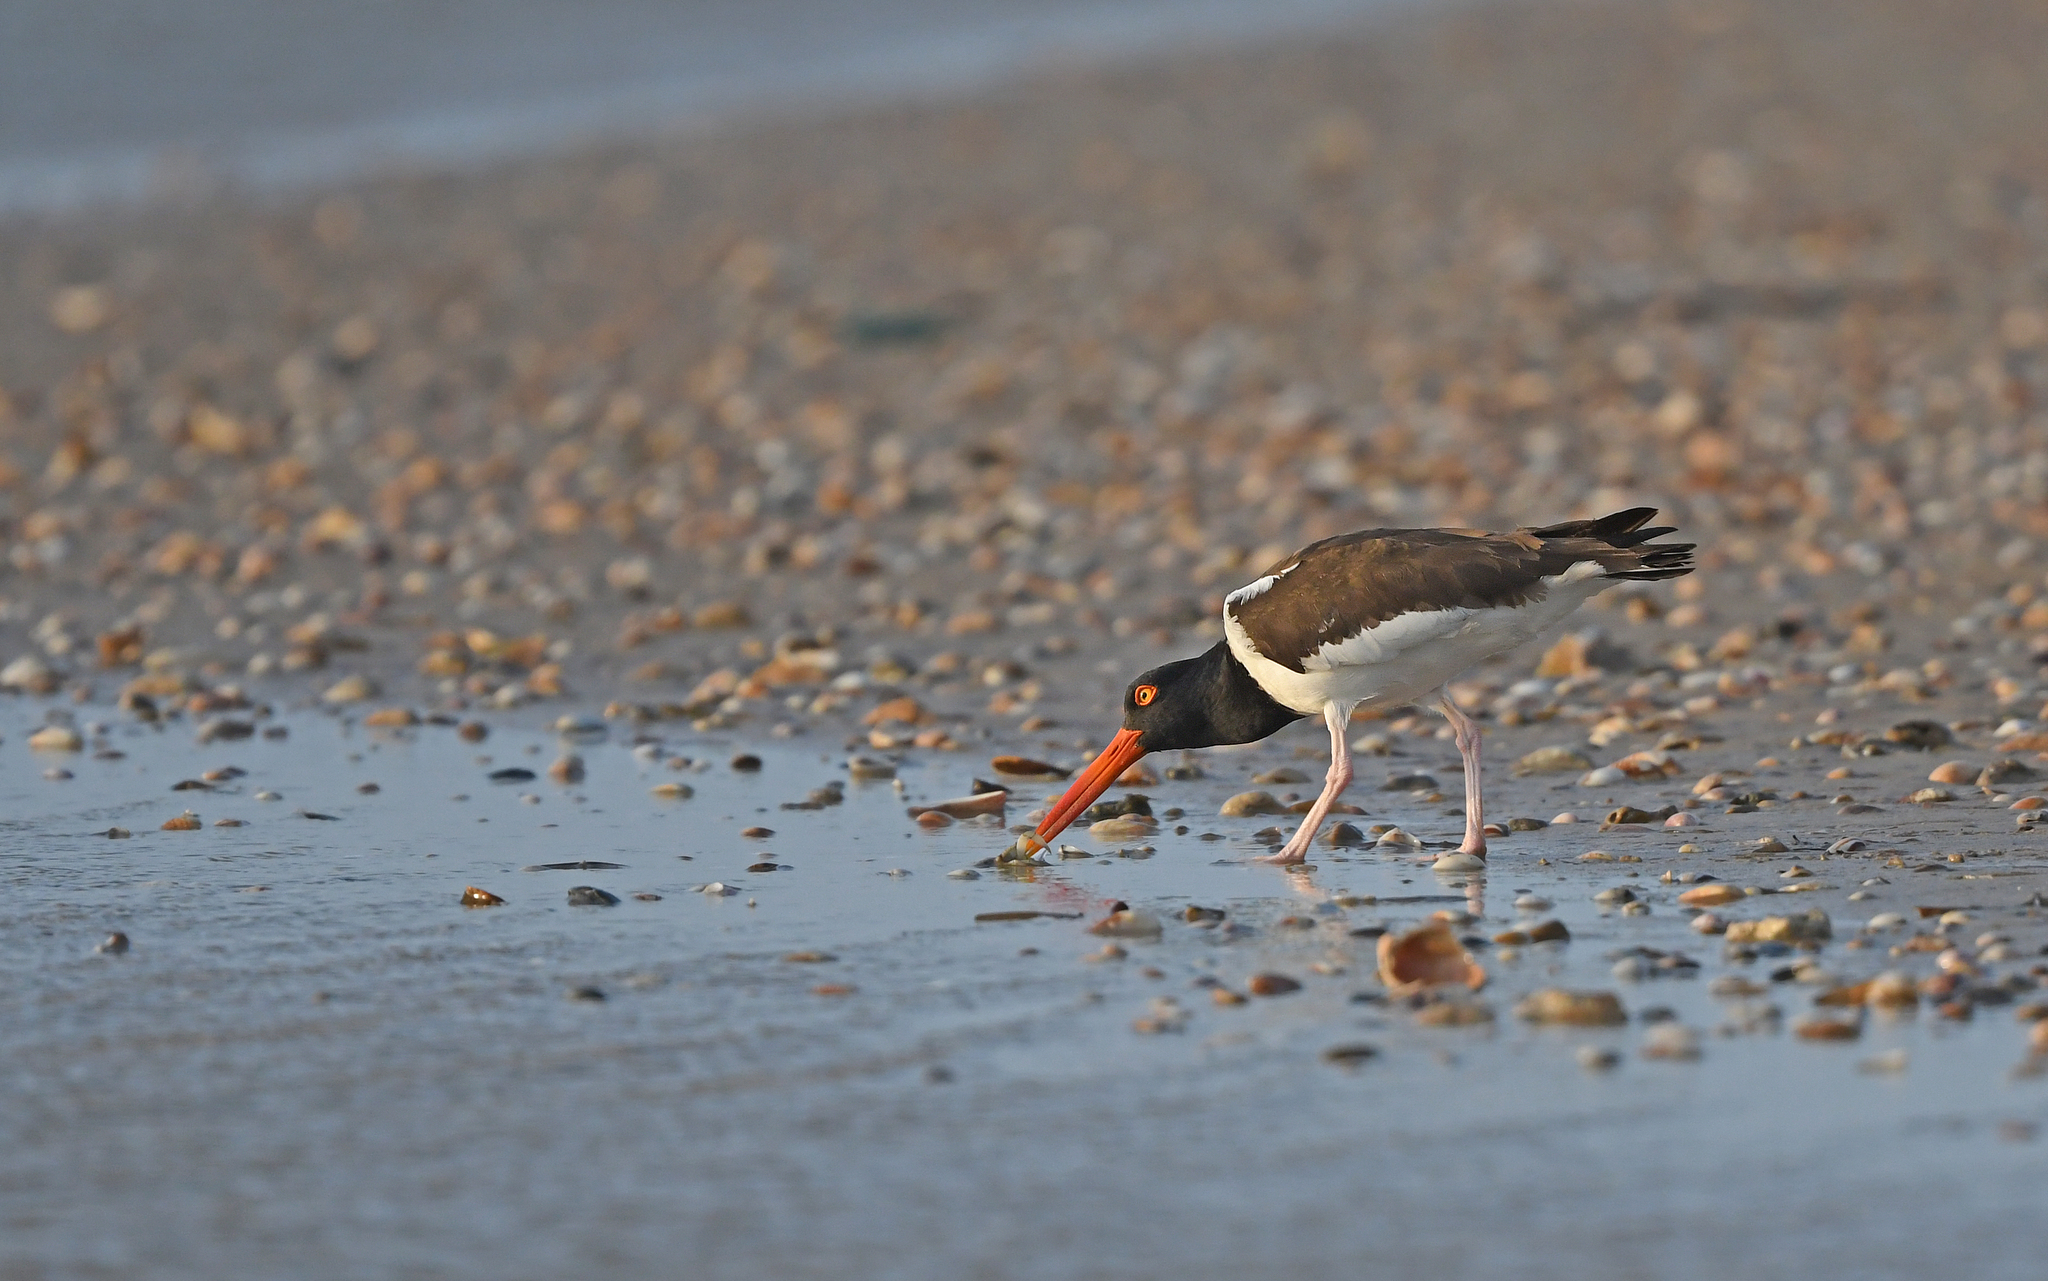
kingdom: Animalia
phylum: Chordata
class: Aves
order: Charadriiformes
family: Haematopodidae
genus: Haematopus
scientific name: Haematopus palliatus
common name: American oystercatcher
